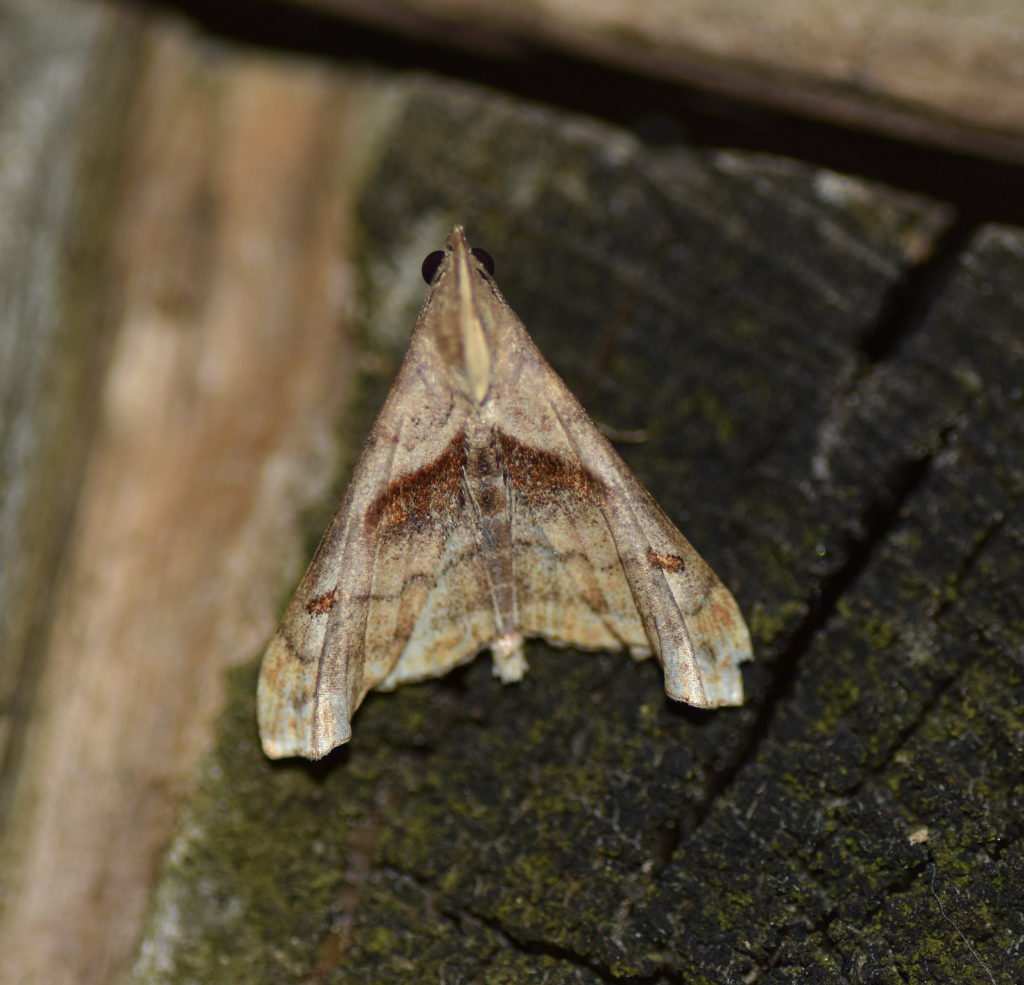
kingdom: Animalia
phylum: Arthropoda
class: Insecta
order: Lepidoptera
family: Erebidae
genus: Palthis
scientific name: Palthis angulalis
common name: Dark-spotted palthis moth
